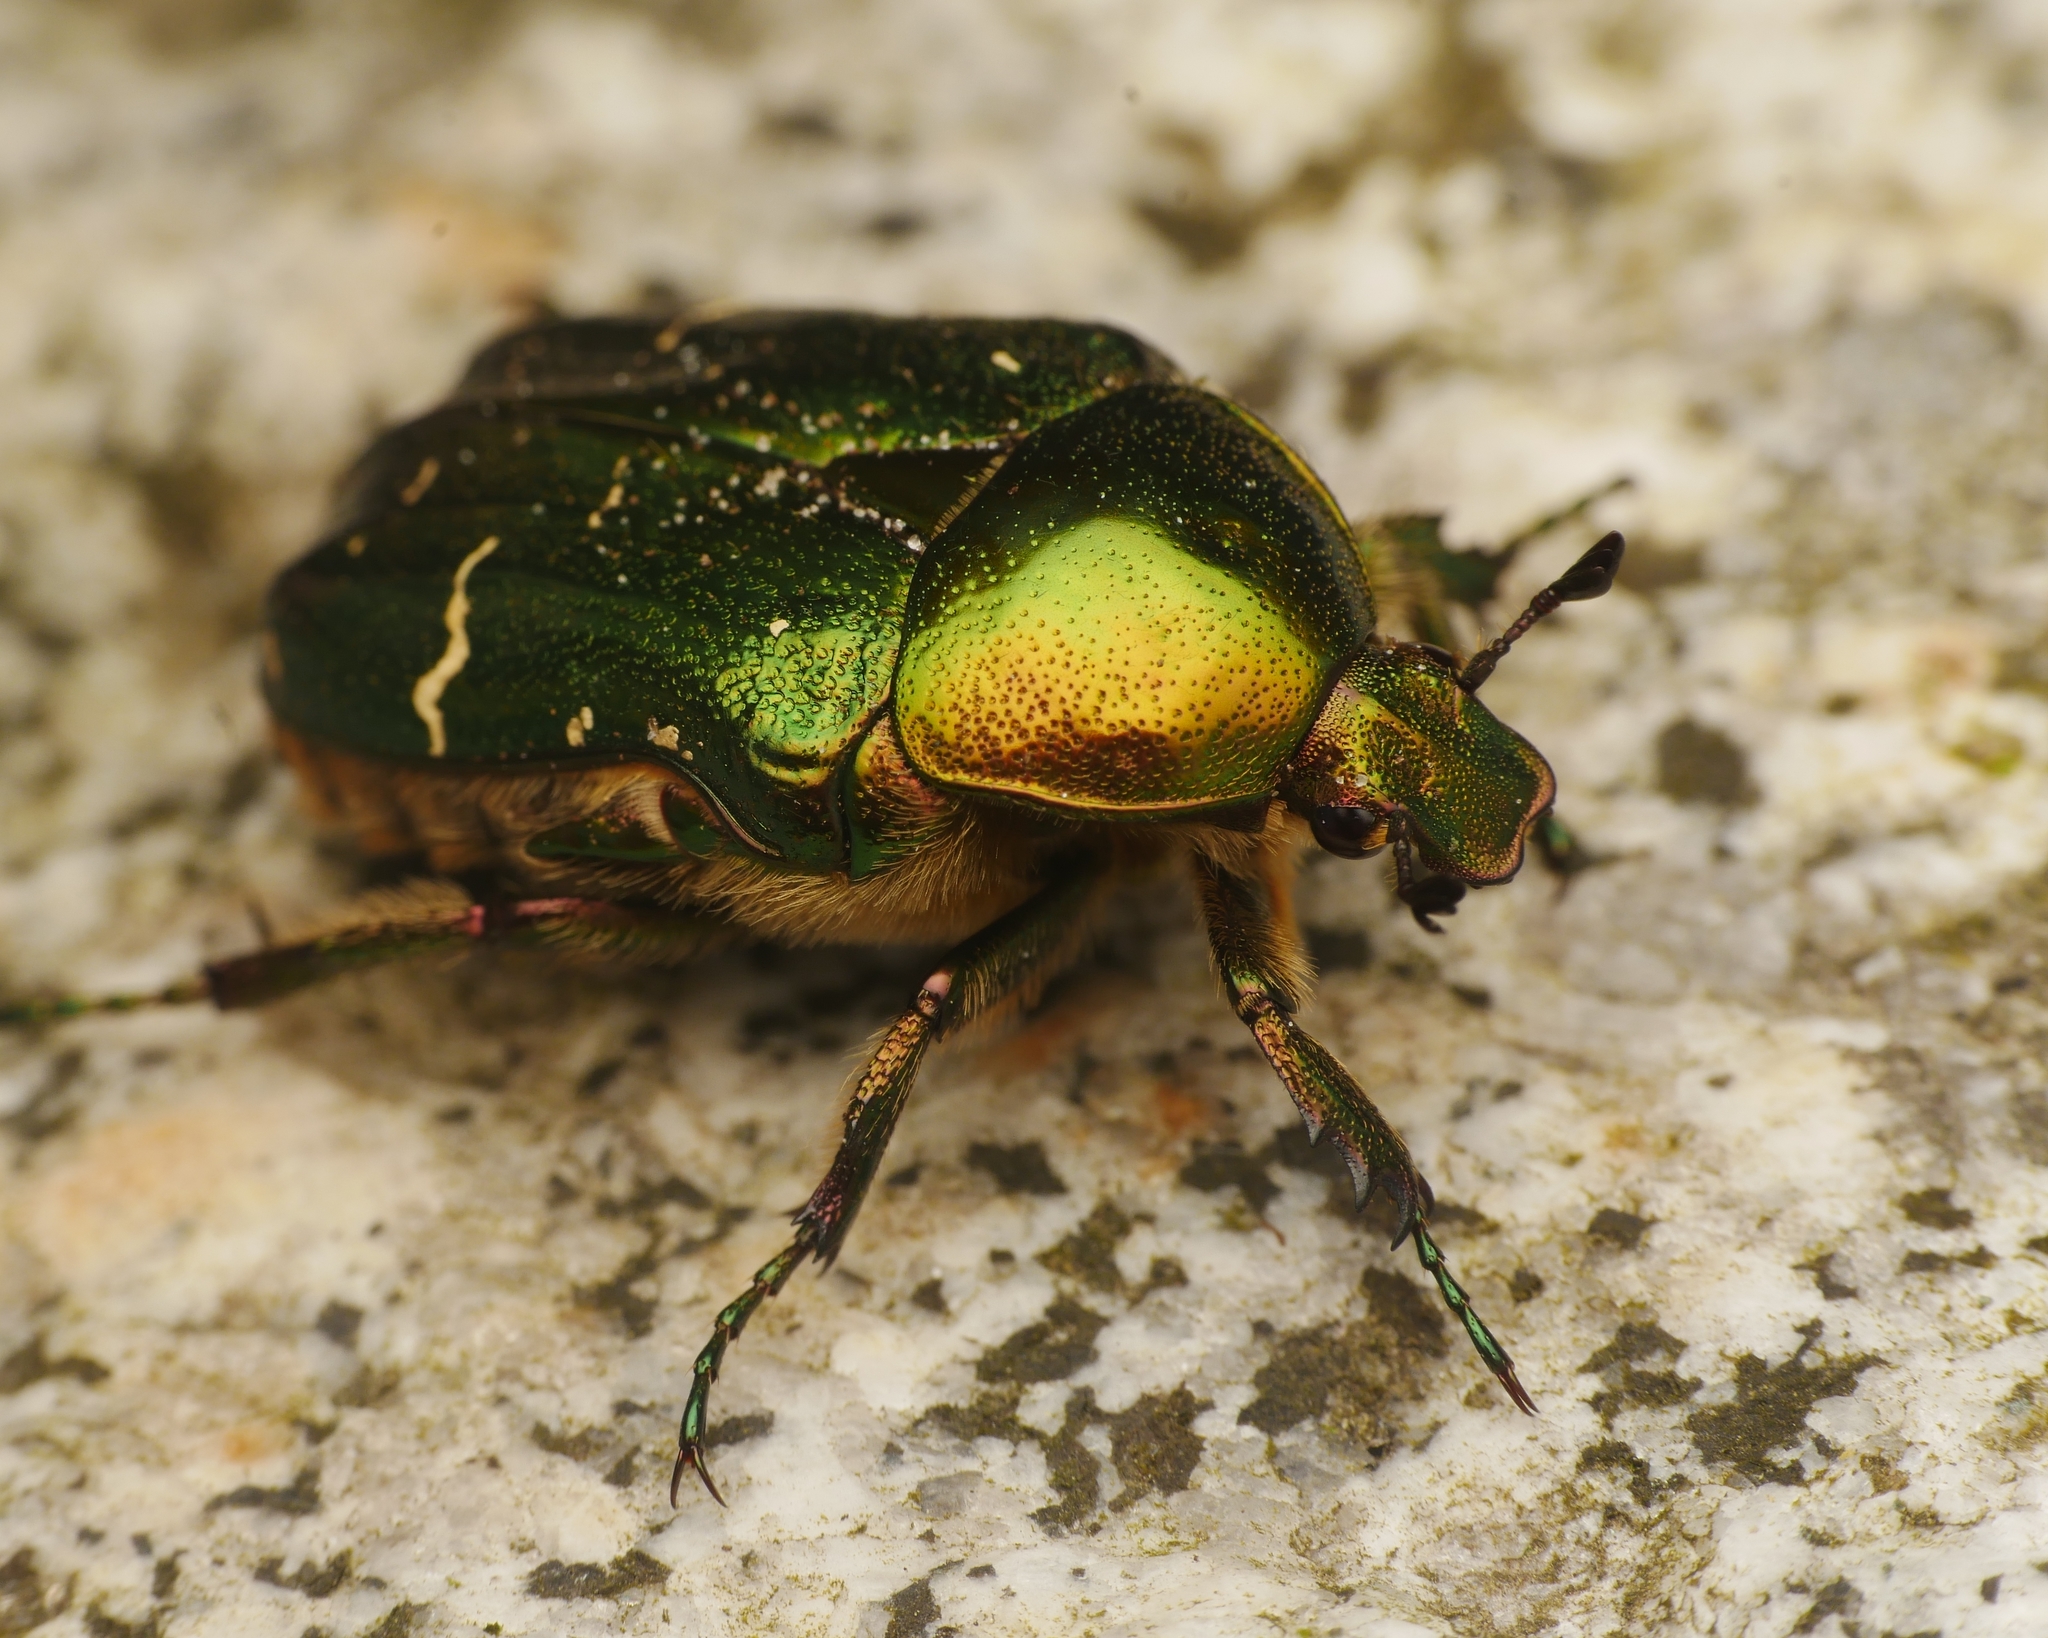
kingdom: Animalia
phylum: Arthropoda
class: Insecta
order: Coleoptera
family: Scarabaeidae
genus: Cetonia
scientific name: Cetonia aurata
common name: Rose chafer
